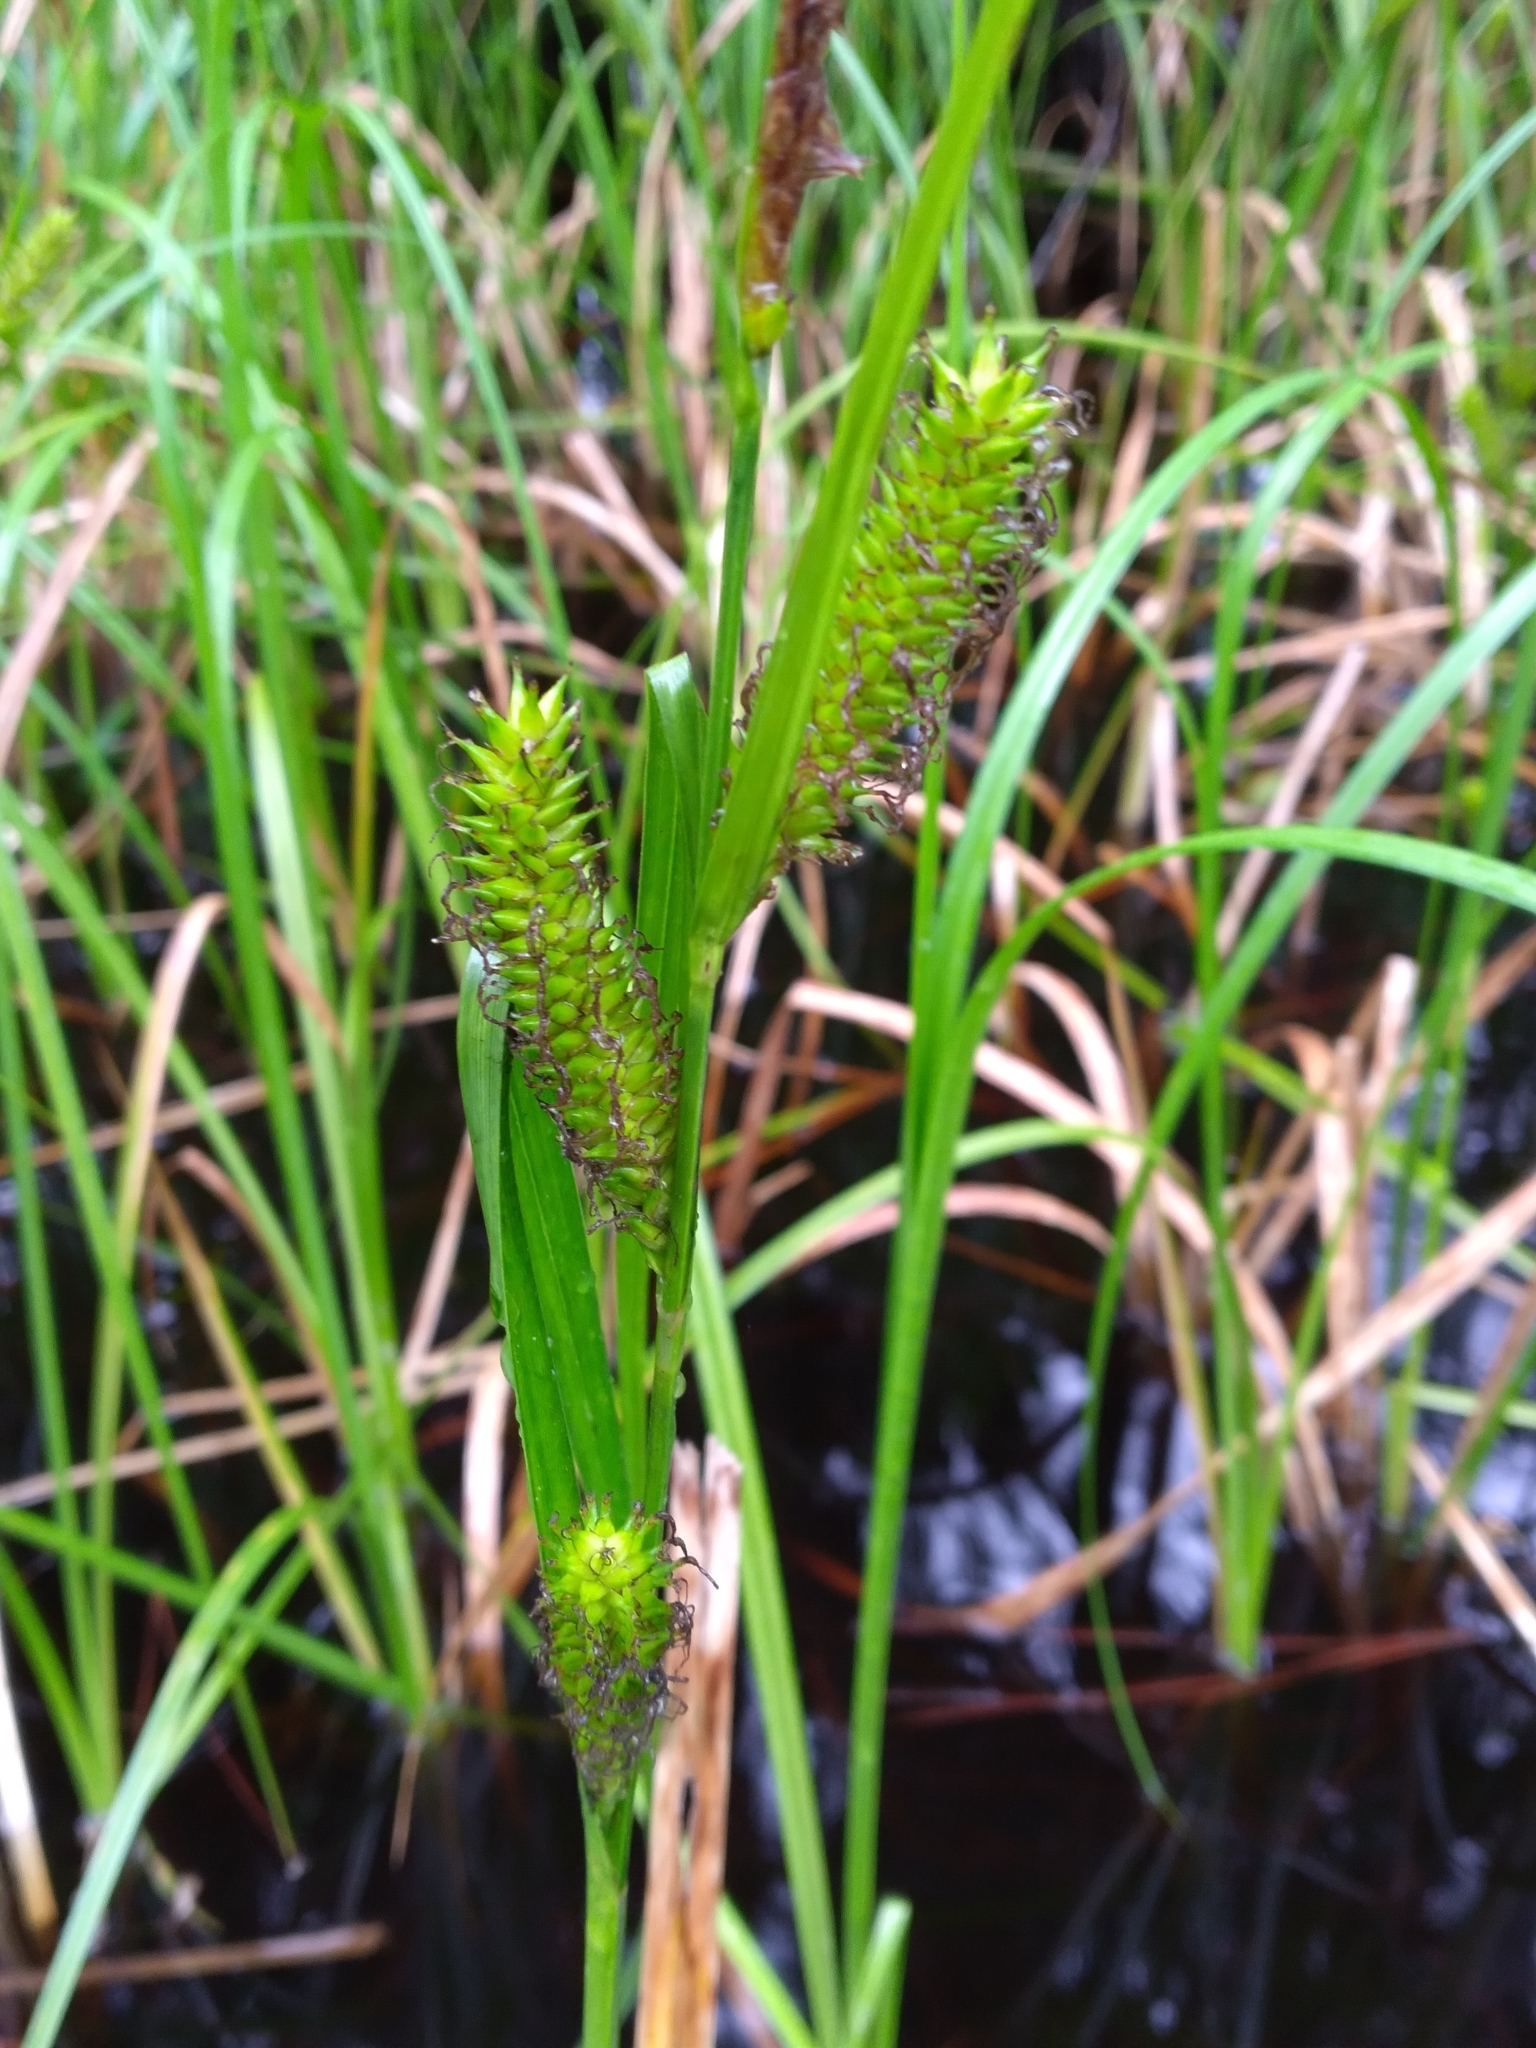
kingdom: Plantae
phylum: Tracheophyta
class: Liliopsida
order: Poales
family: Cyperaceae
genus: Carex
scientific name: Carex hyalinolepis
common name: Shoreline sedge
